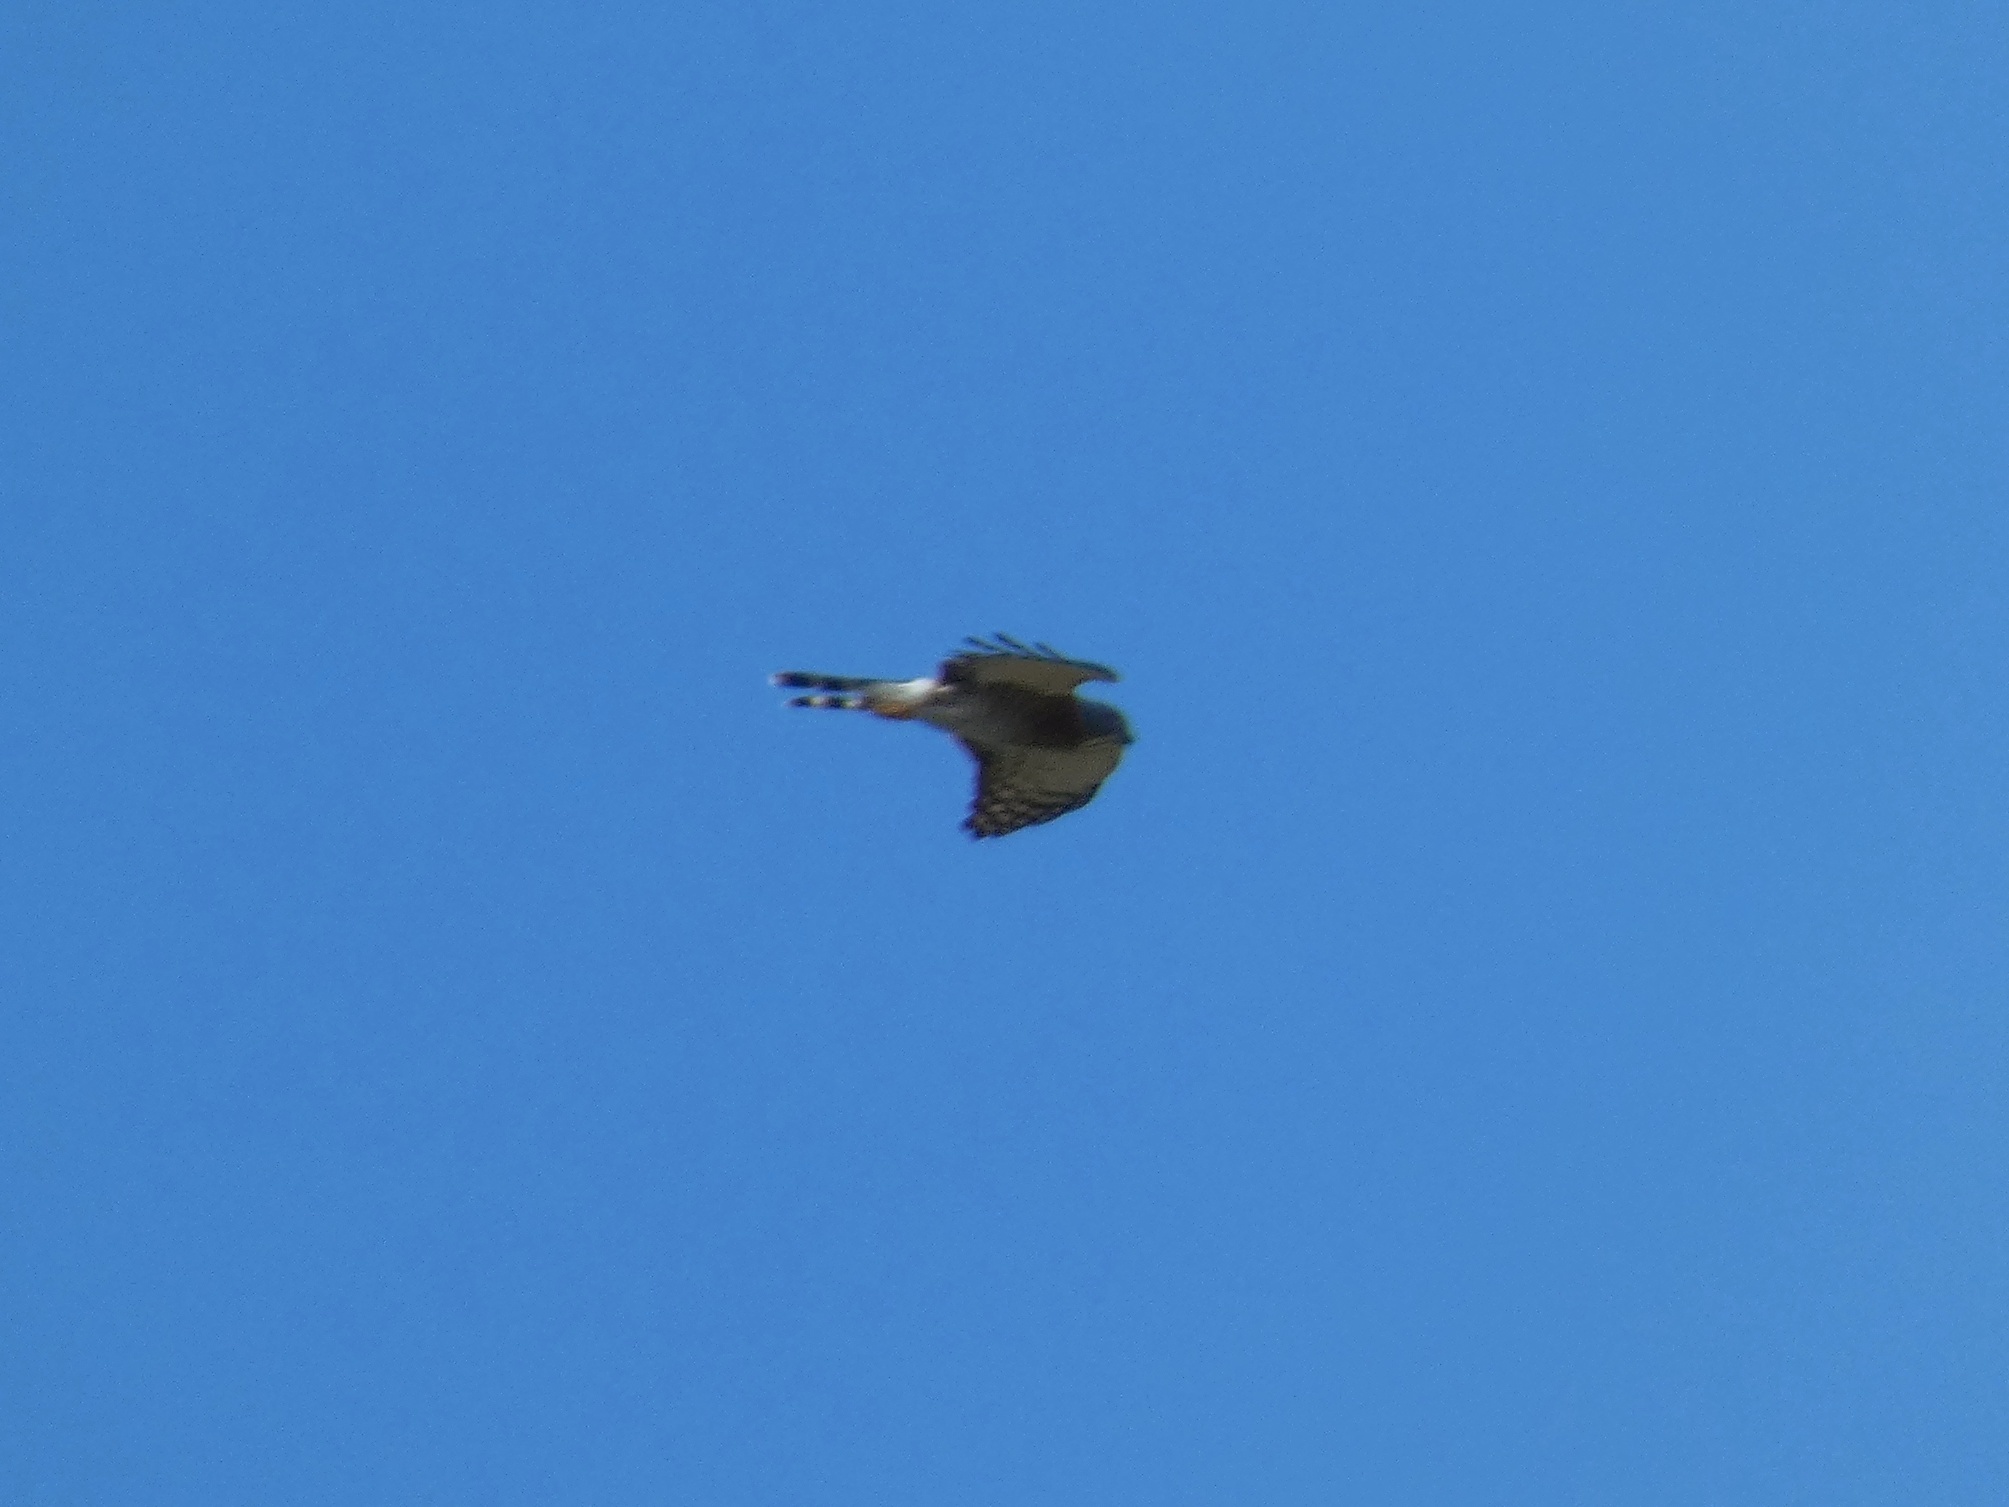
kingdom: Animalia
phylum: Chordata
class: Aves
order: Accipitriformes
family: Accipitridae
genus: Harpagus
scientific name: Harpagus bidentatus
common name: Double-toothed kite
